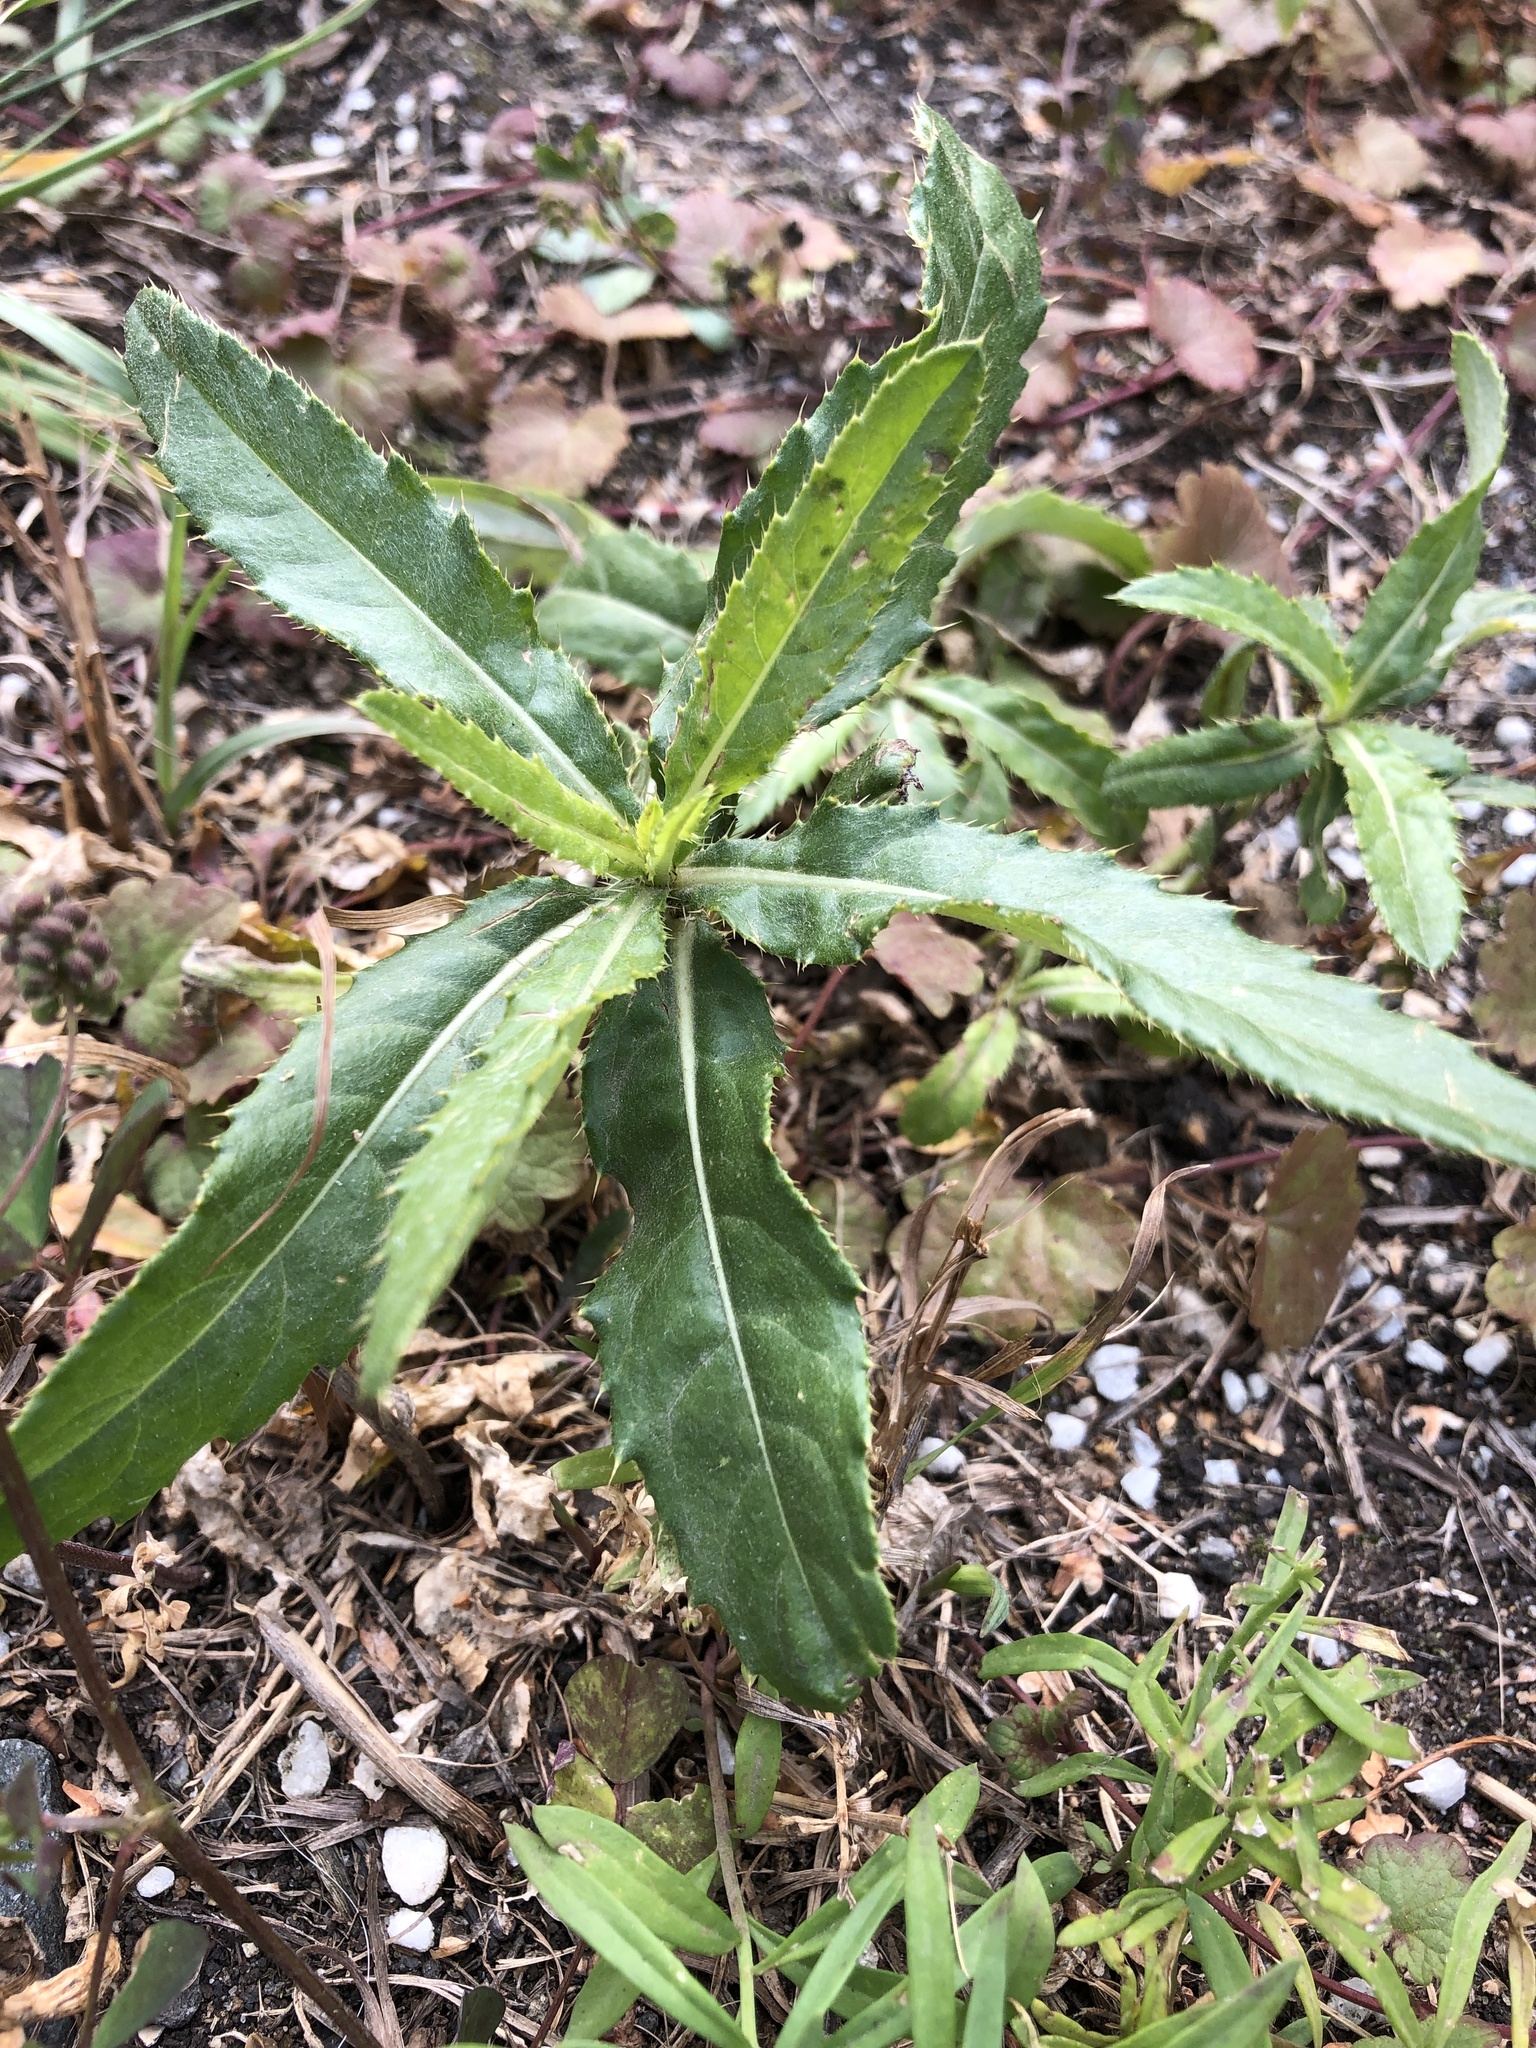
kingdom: Plantae
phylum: Tracheophyta
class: Magnoliopsida
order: Asterales
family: Asteraceae
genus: Cirsium
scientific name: Cirsium arvense
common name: Creeping thistle
